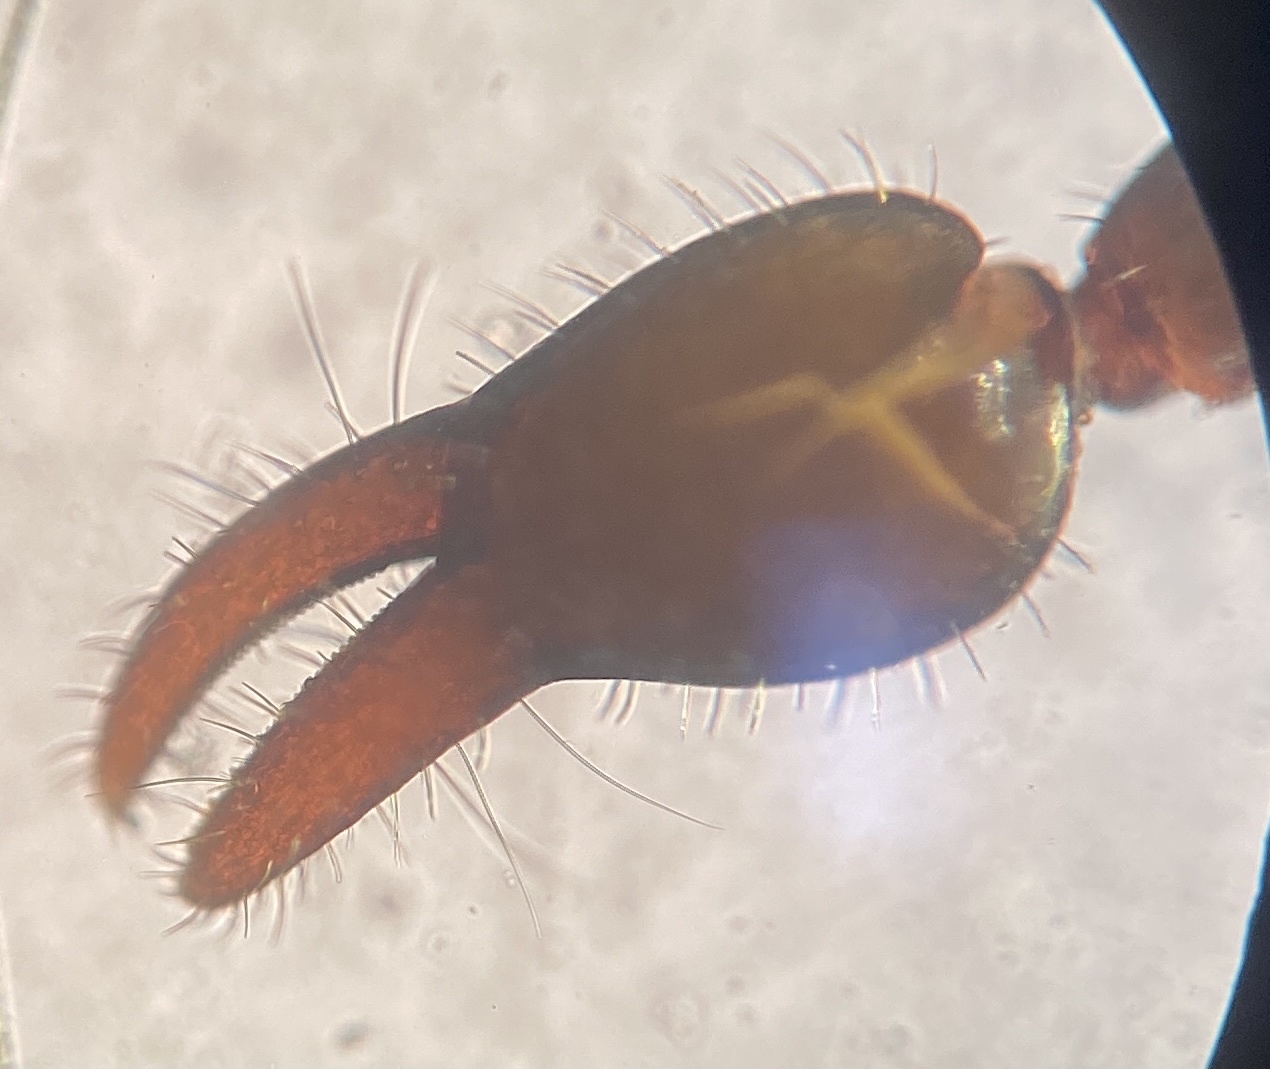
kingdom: Animalia
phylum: Arthropoda
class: Arachnida
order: Pseudoscorpiones
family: Chernetidae
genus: Parachernes
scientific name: Parachernes virginicus
